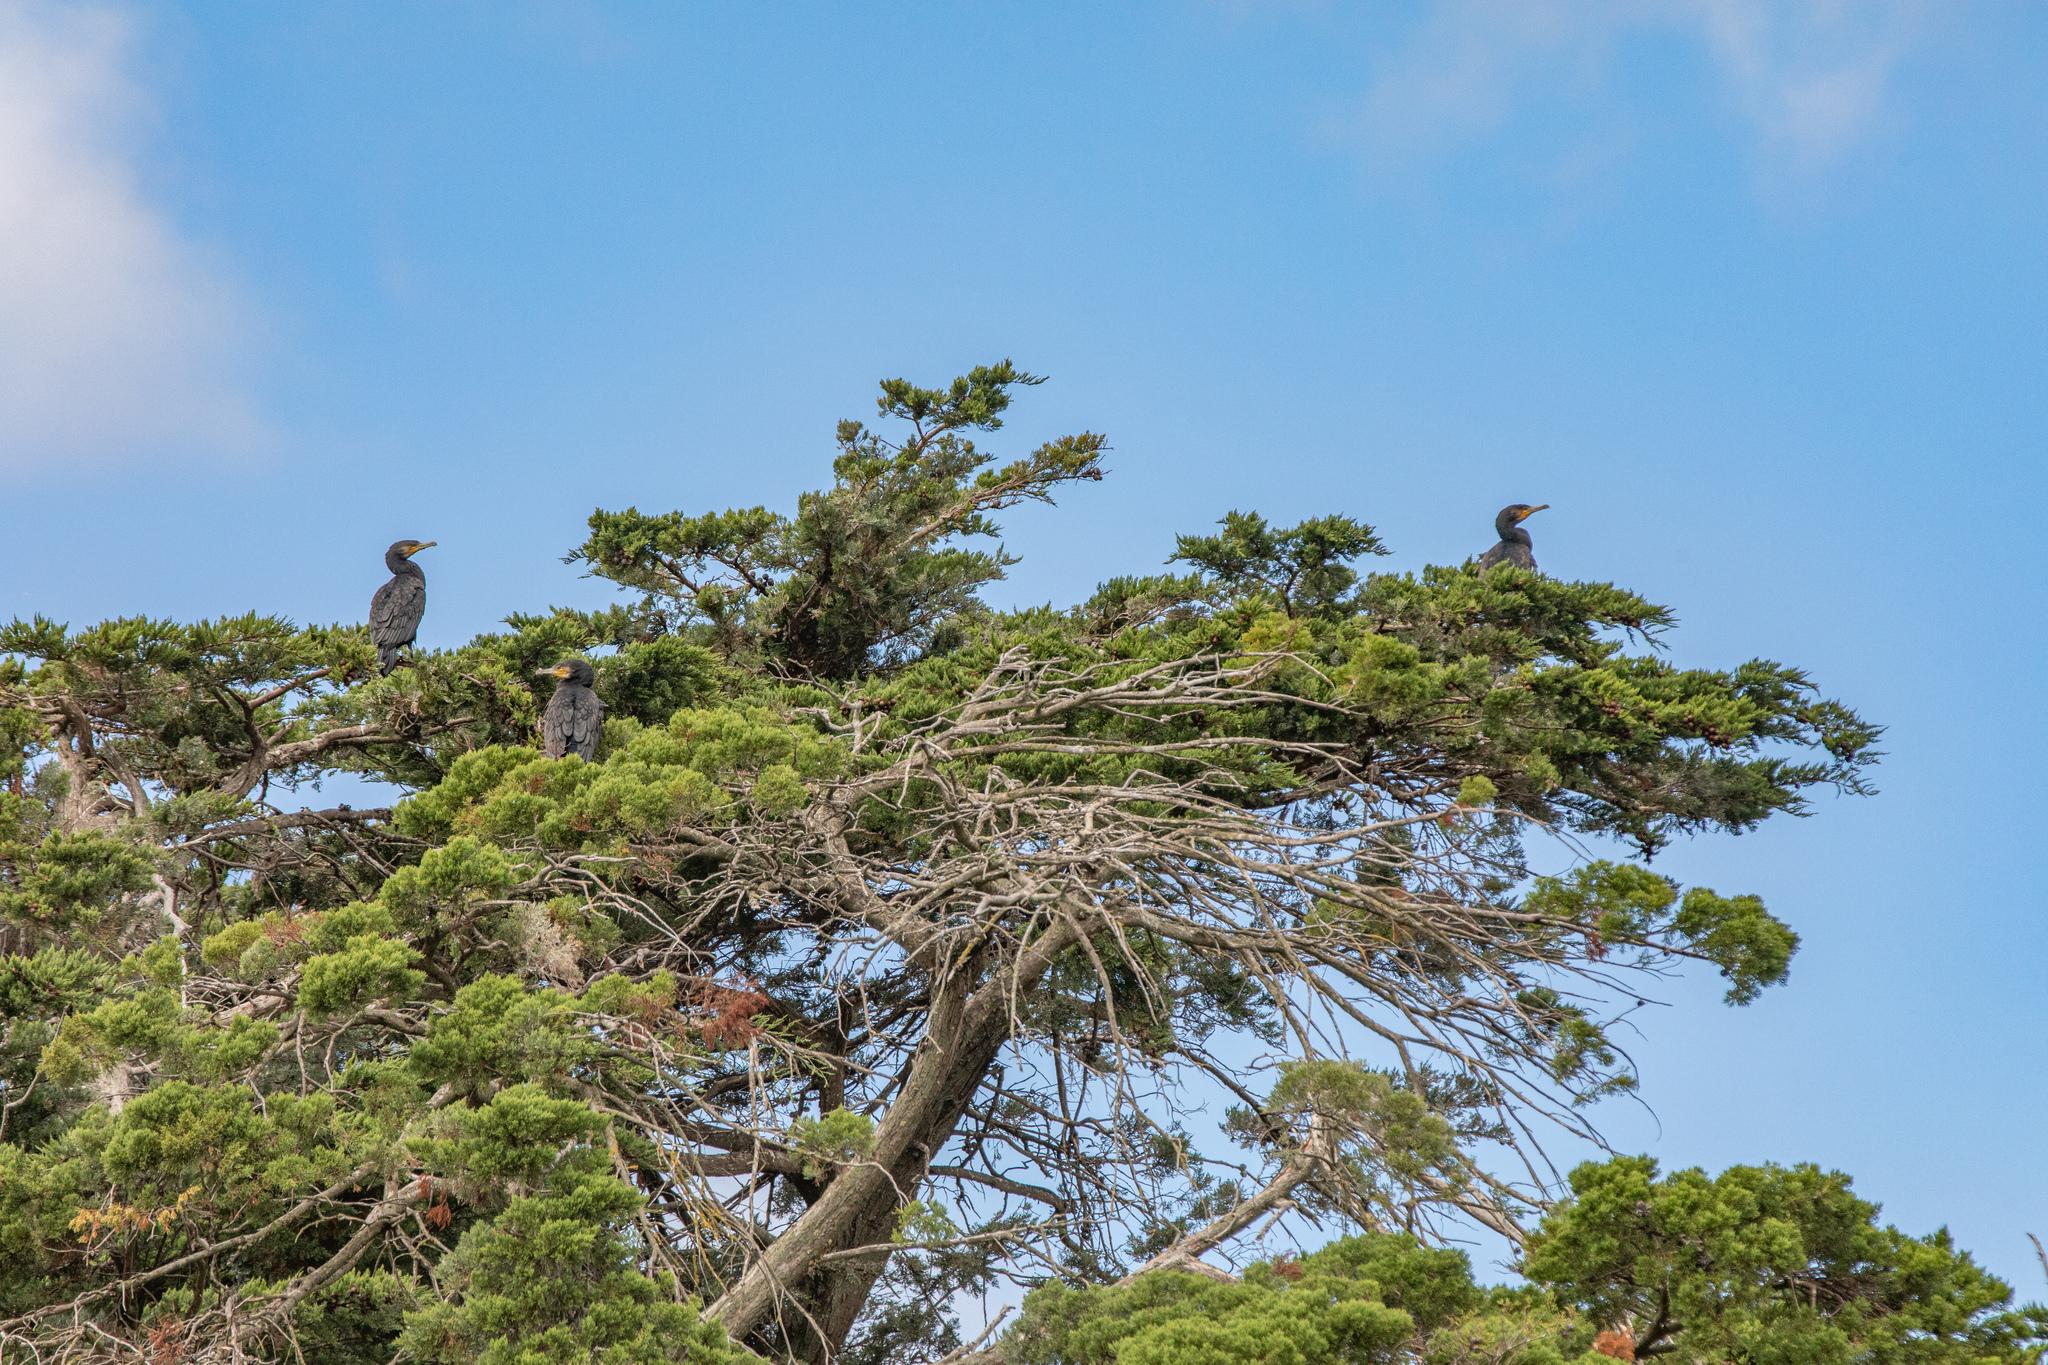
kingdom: Animalia
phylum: Chordata
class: Aves
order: Suliformes
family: Phalacrocoracidae
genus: Phalacrocorax
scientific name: Phalacrocorax carbo
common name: Great cormorant
